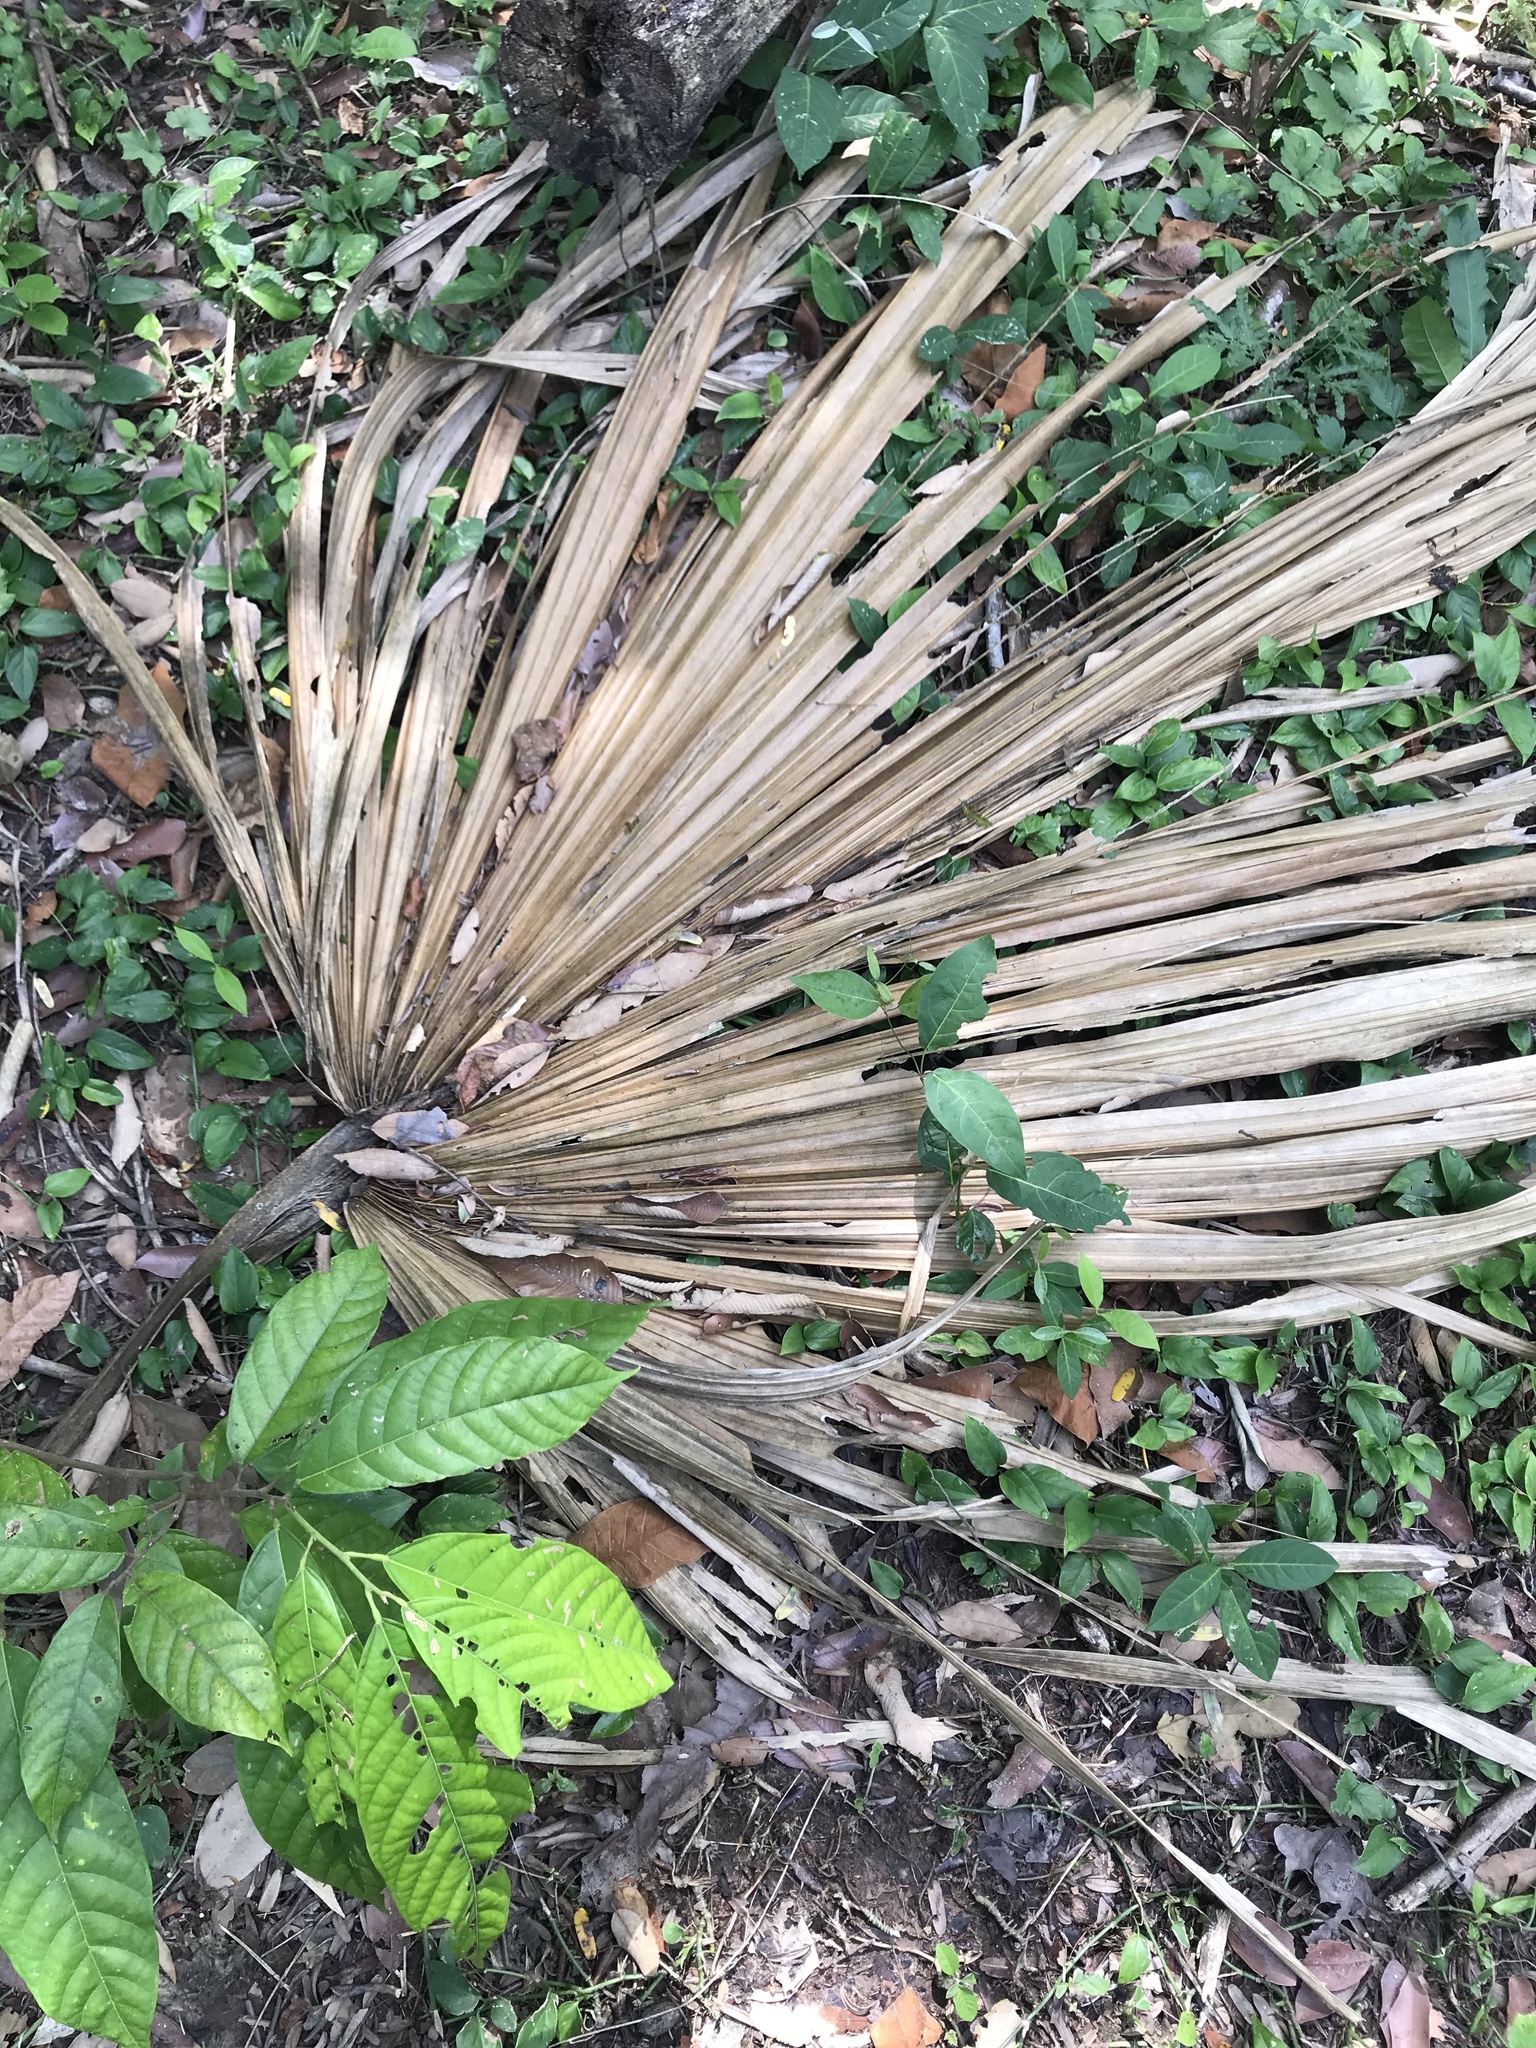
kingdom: Plantae
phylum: Tracheophyta
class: Liliopsida
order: Arecales
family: Arecaceae
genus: Sabal
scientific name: Sabal mauritiiformis
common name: Trinidad palm
